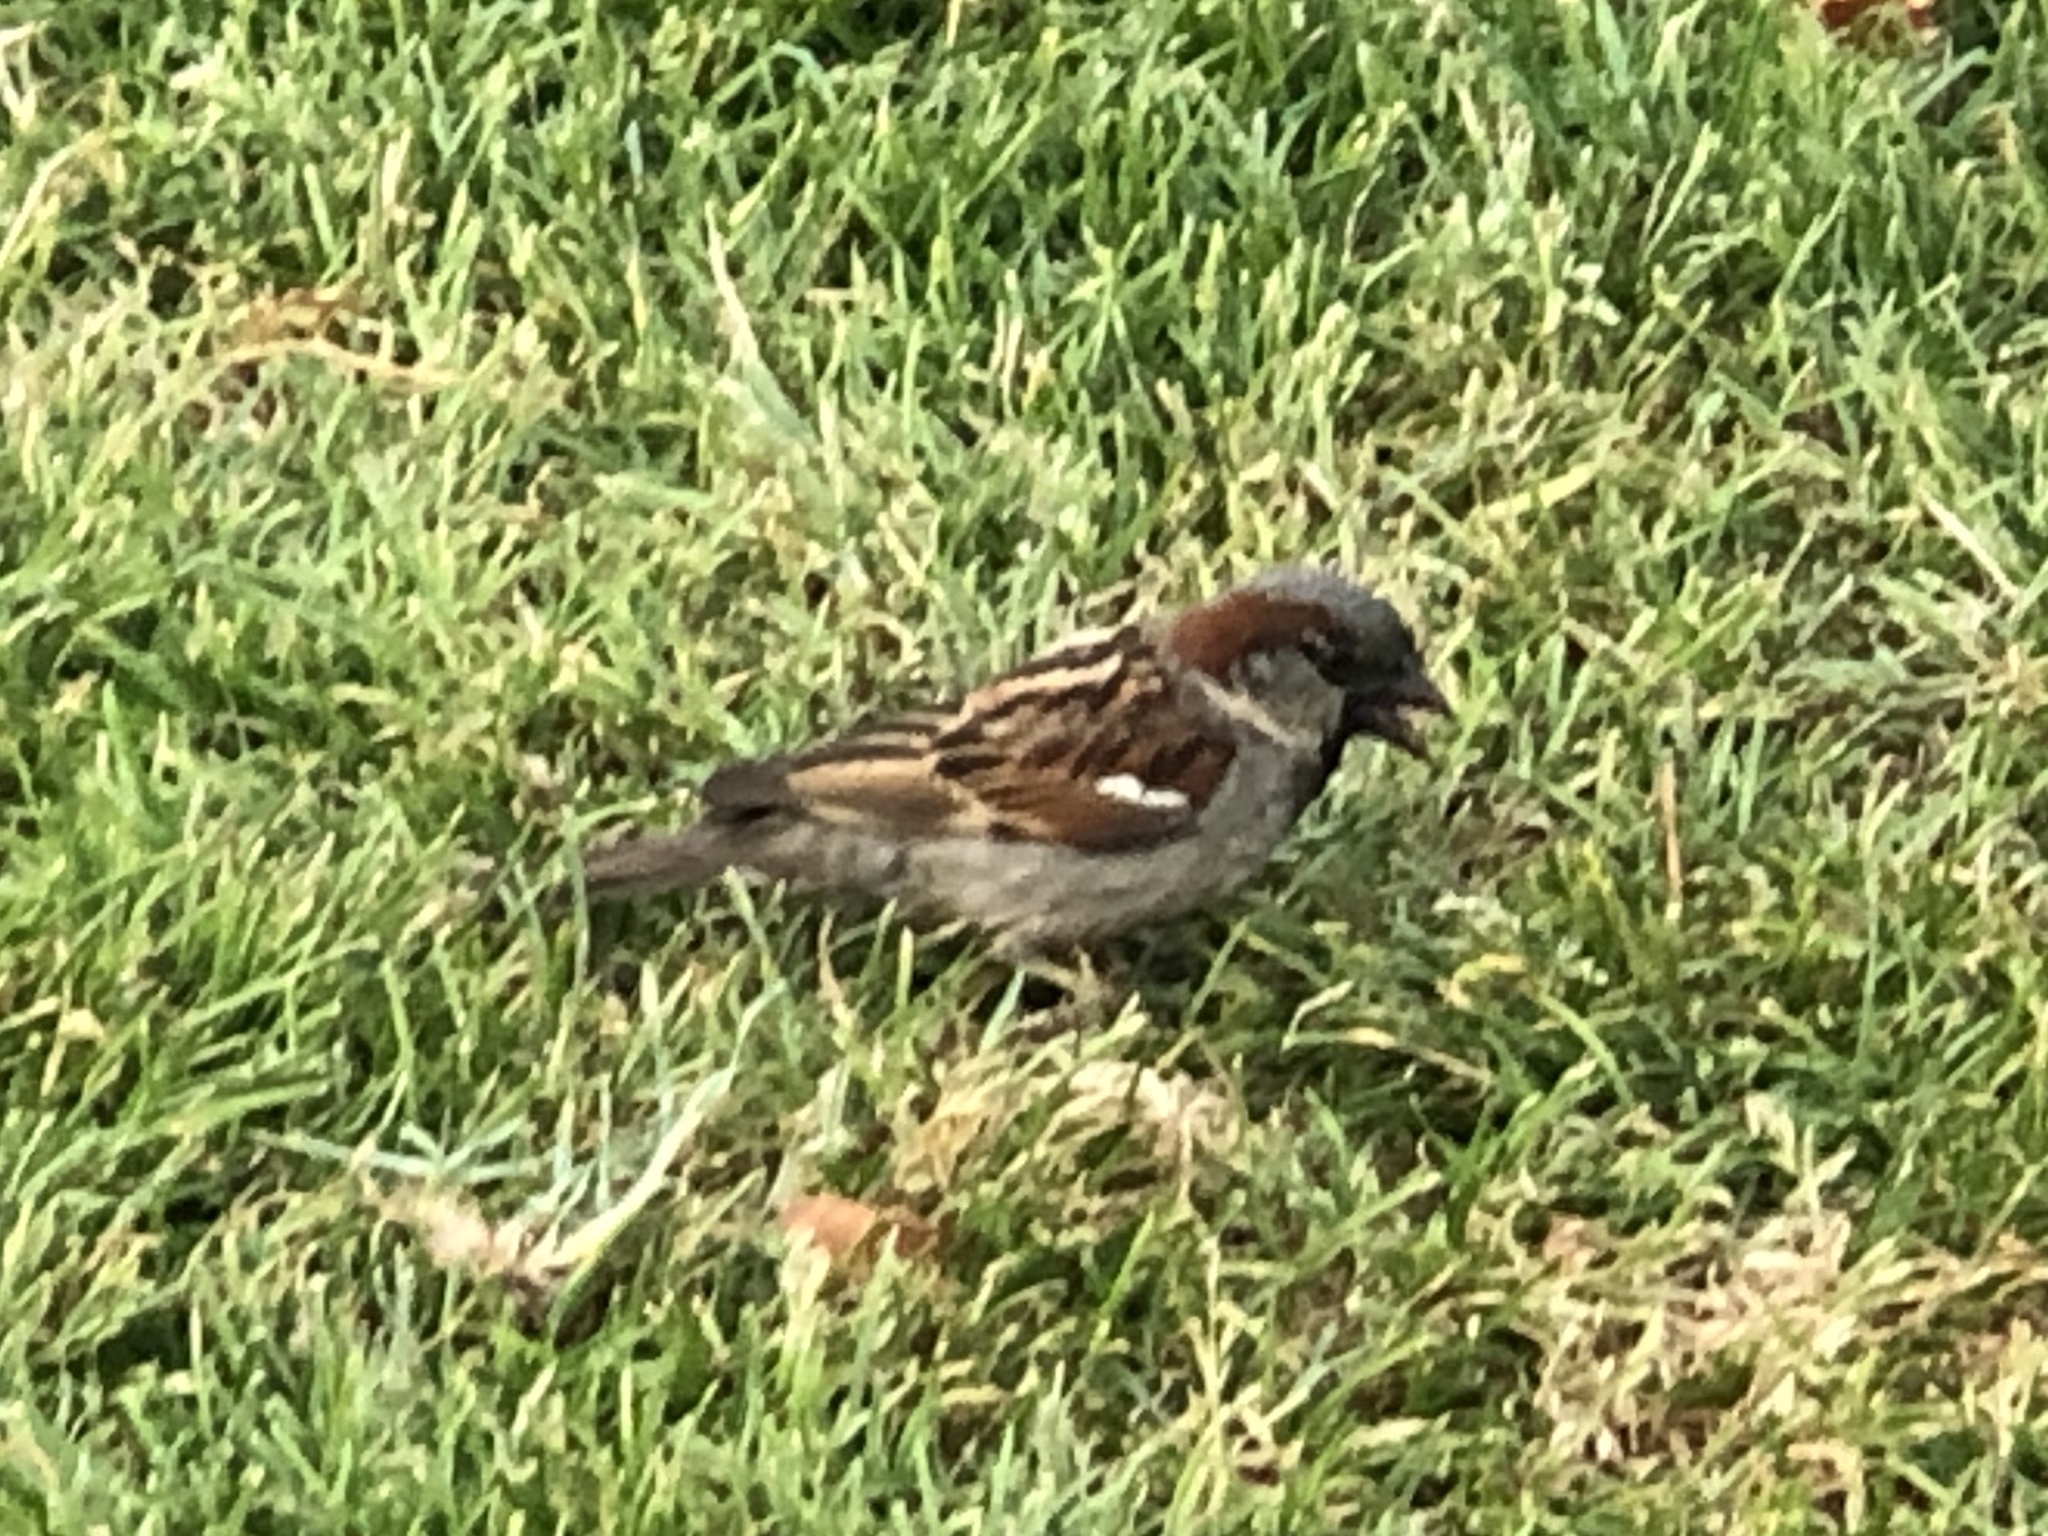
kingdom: Animalia
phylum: Chordata
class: Aves
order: Passeriformes
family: Passeridae
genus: Passer
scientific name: Passer domesticus
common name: House sparrow
